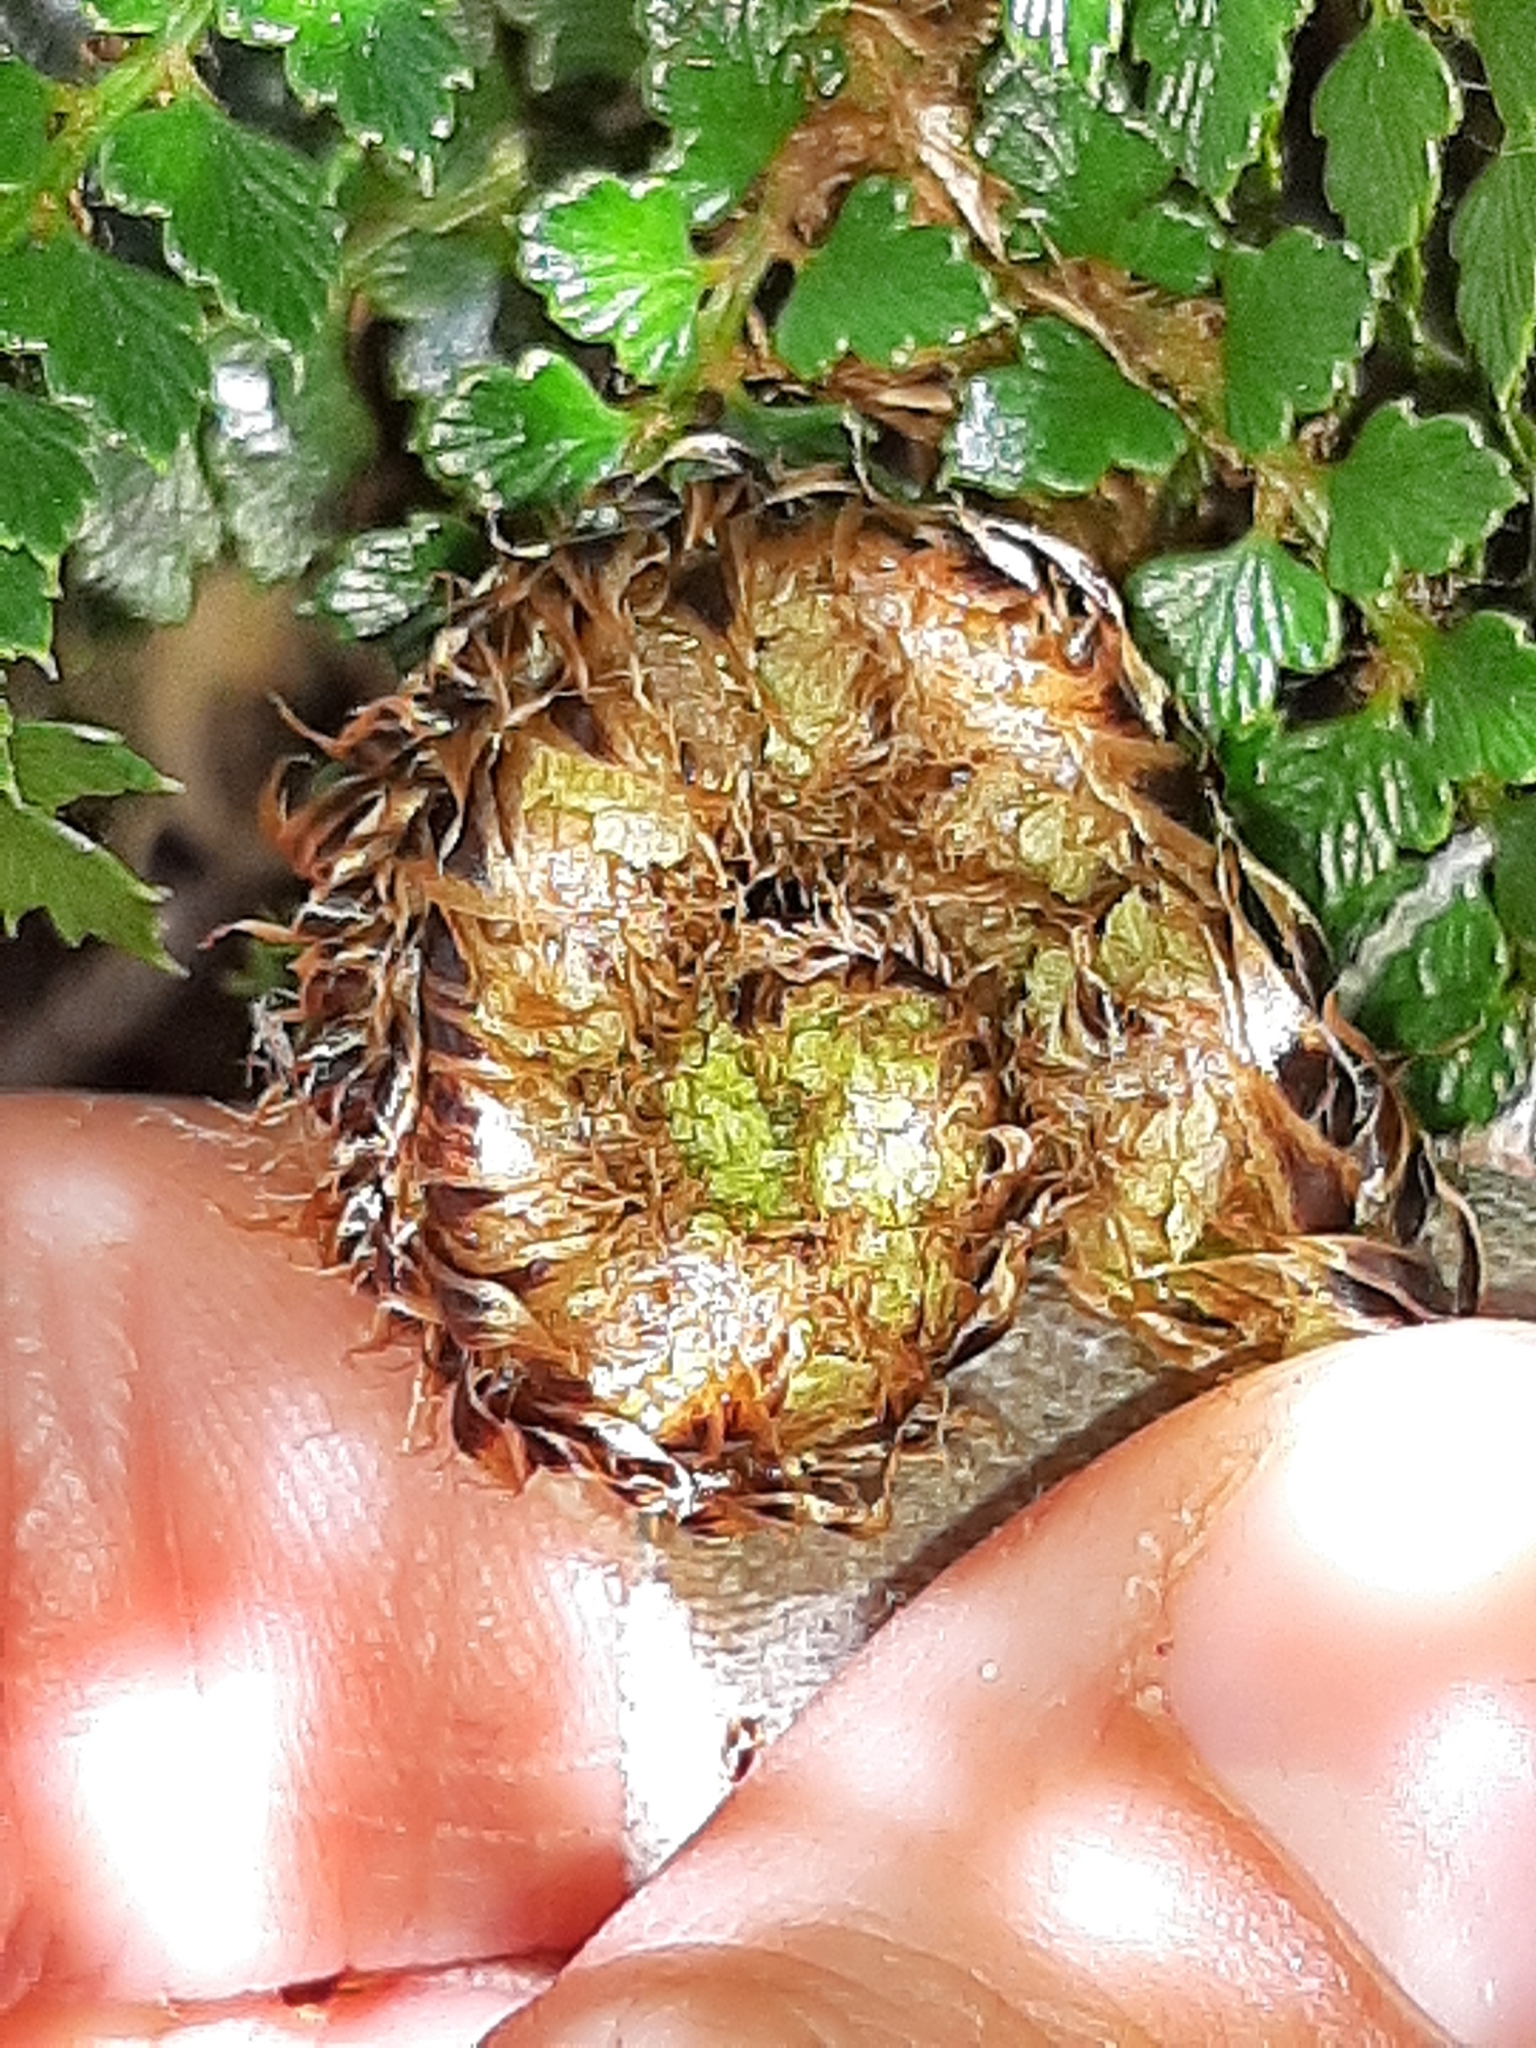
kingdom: Plantae
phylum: Tracheophyta
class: Polypodiopsida
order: Polypodiales
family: Dryopteridaceae
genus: Polystichum
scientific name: Polystichum vestitum
